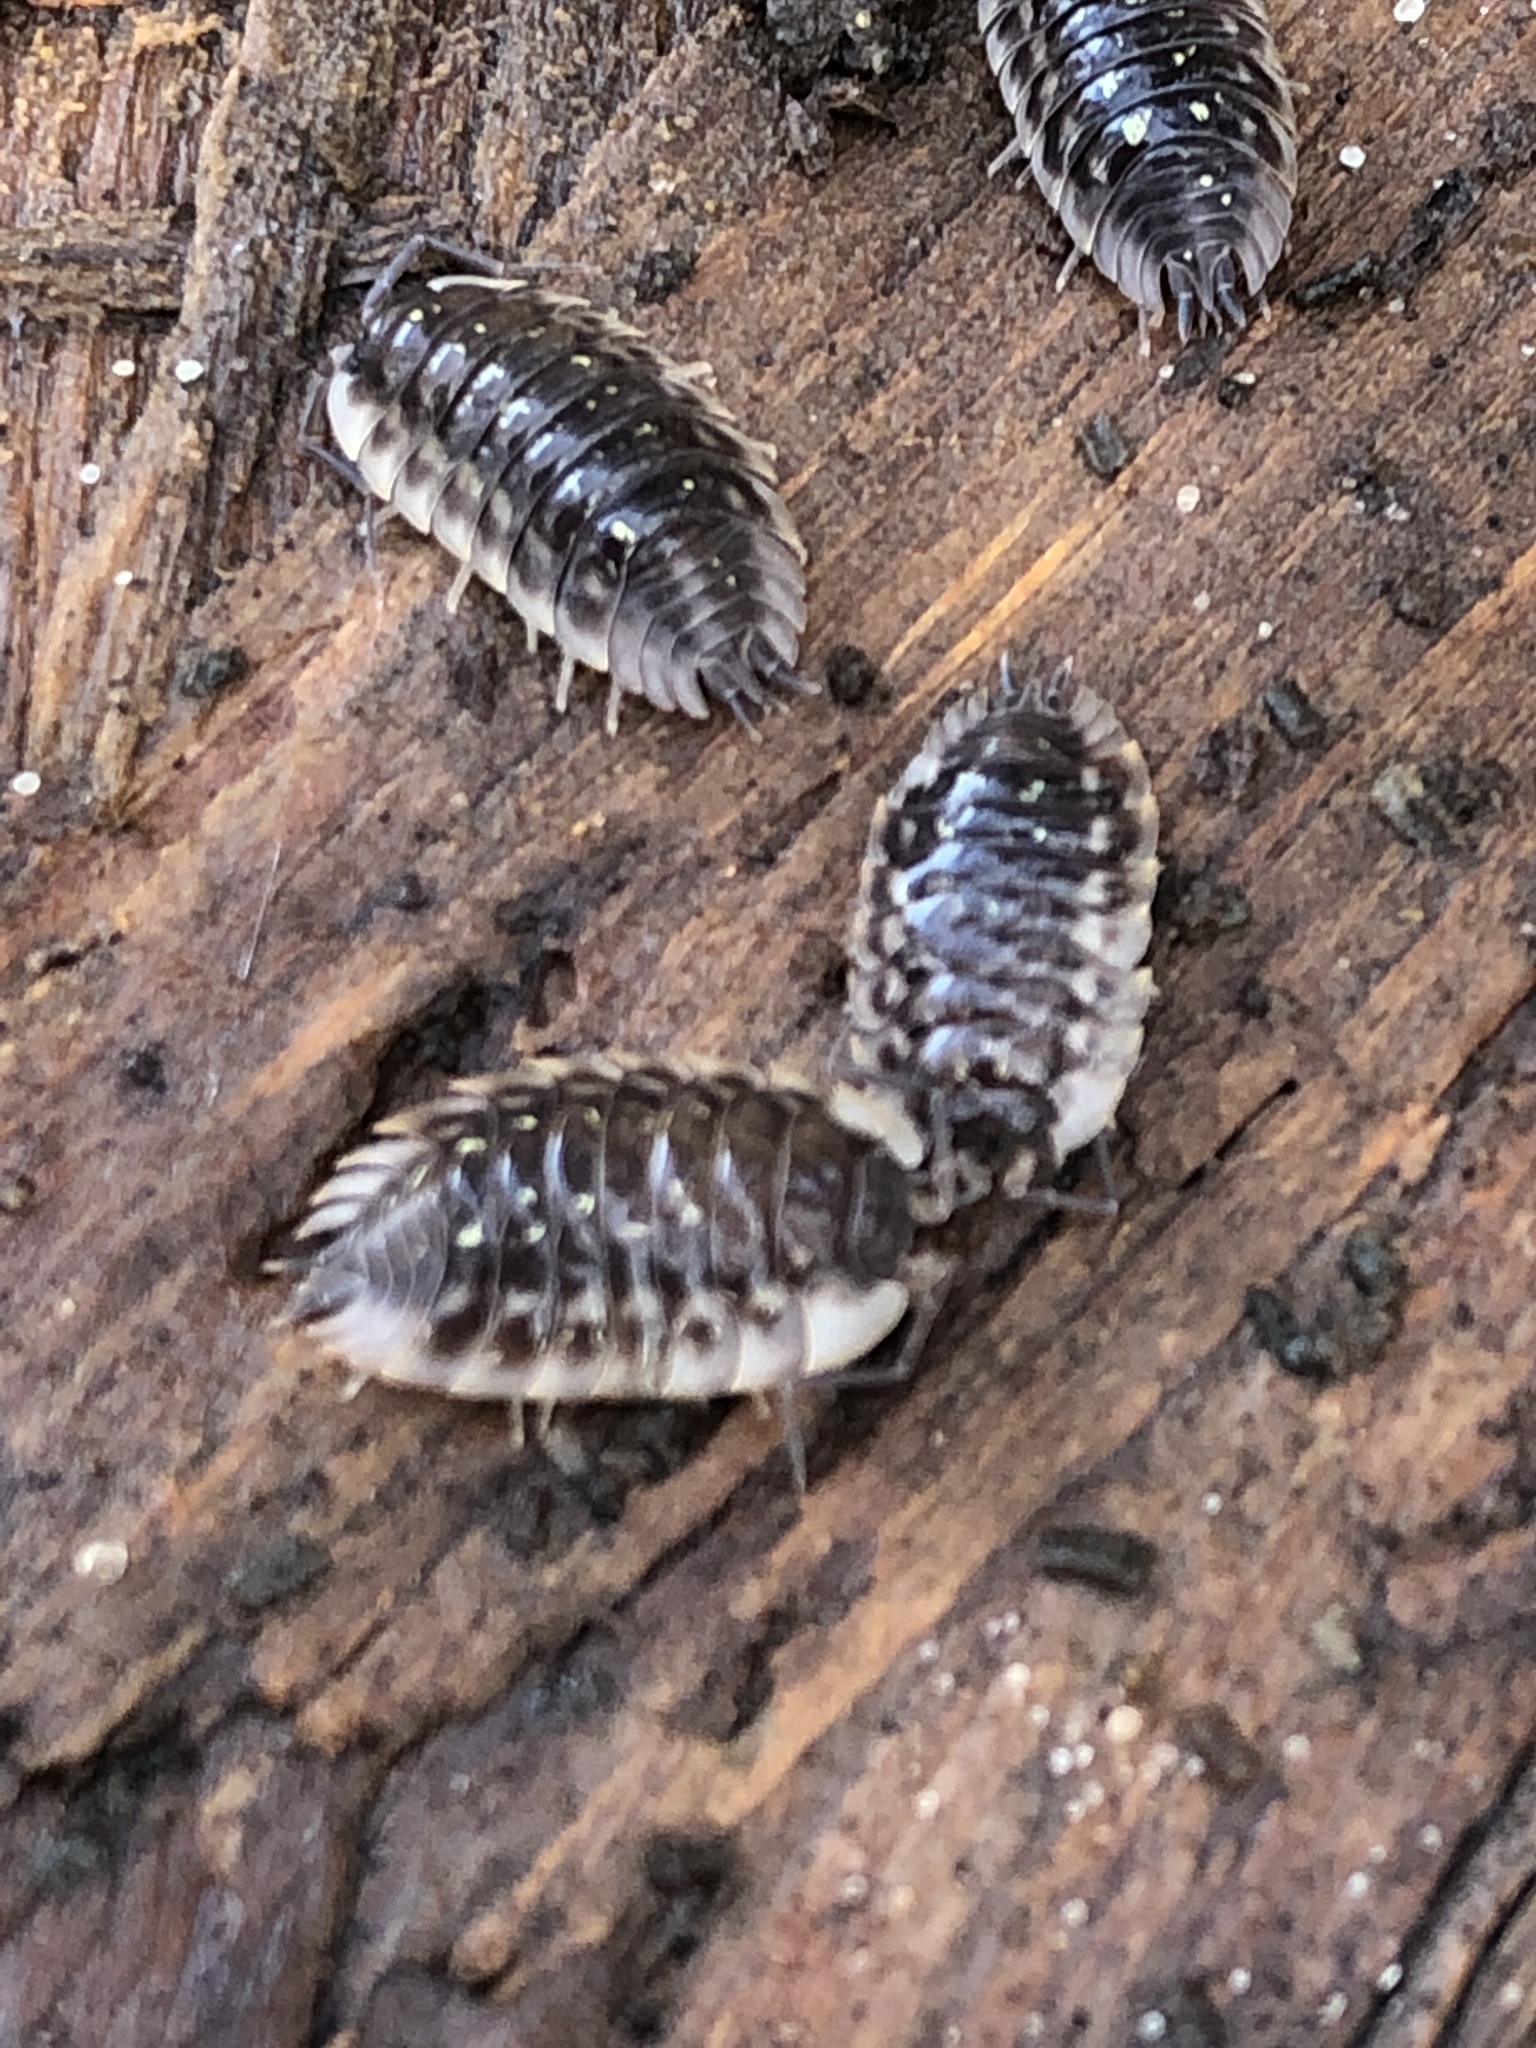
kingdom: Animalia
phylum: Arthropoda
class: Malacostraca
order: Isopoda
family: Oniscidae
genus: Oniscus
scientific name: Oniscus asellus
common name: Common shiny woodlouse
